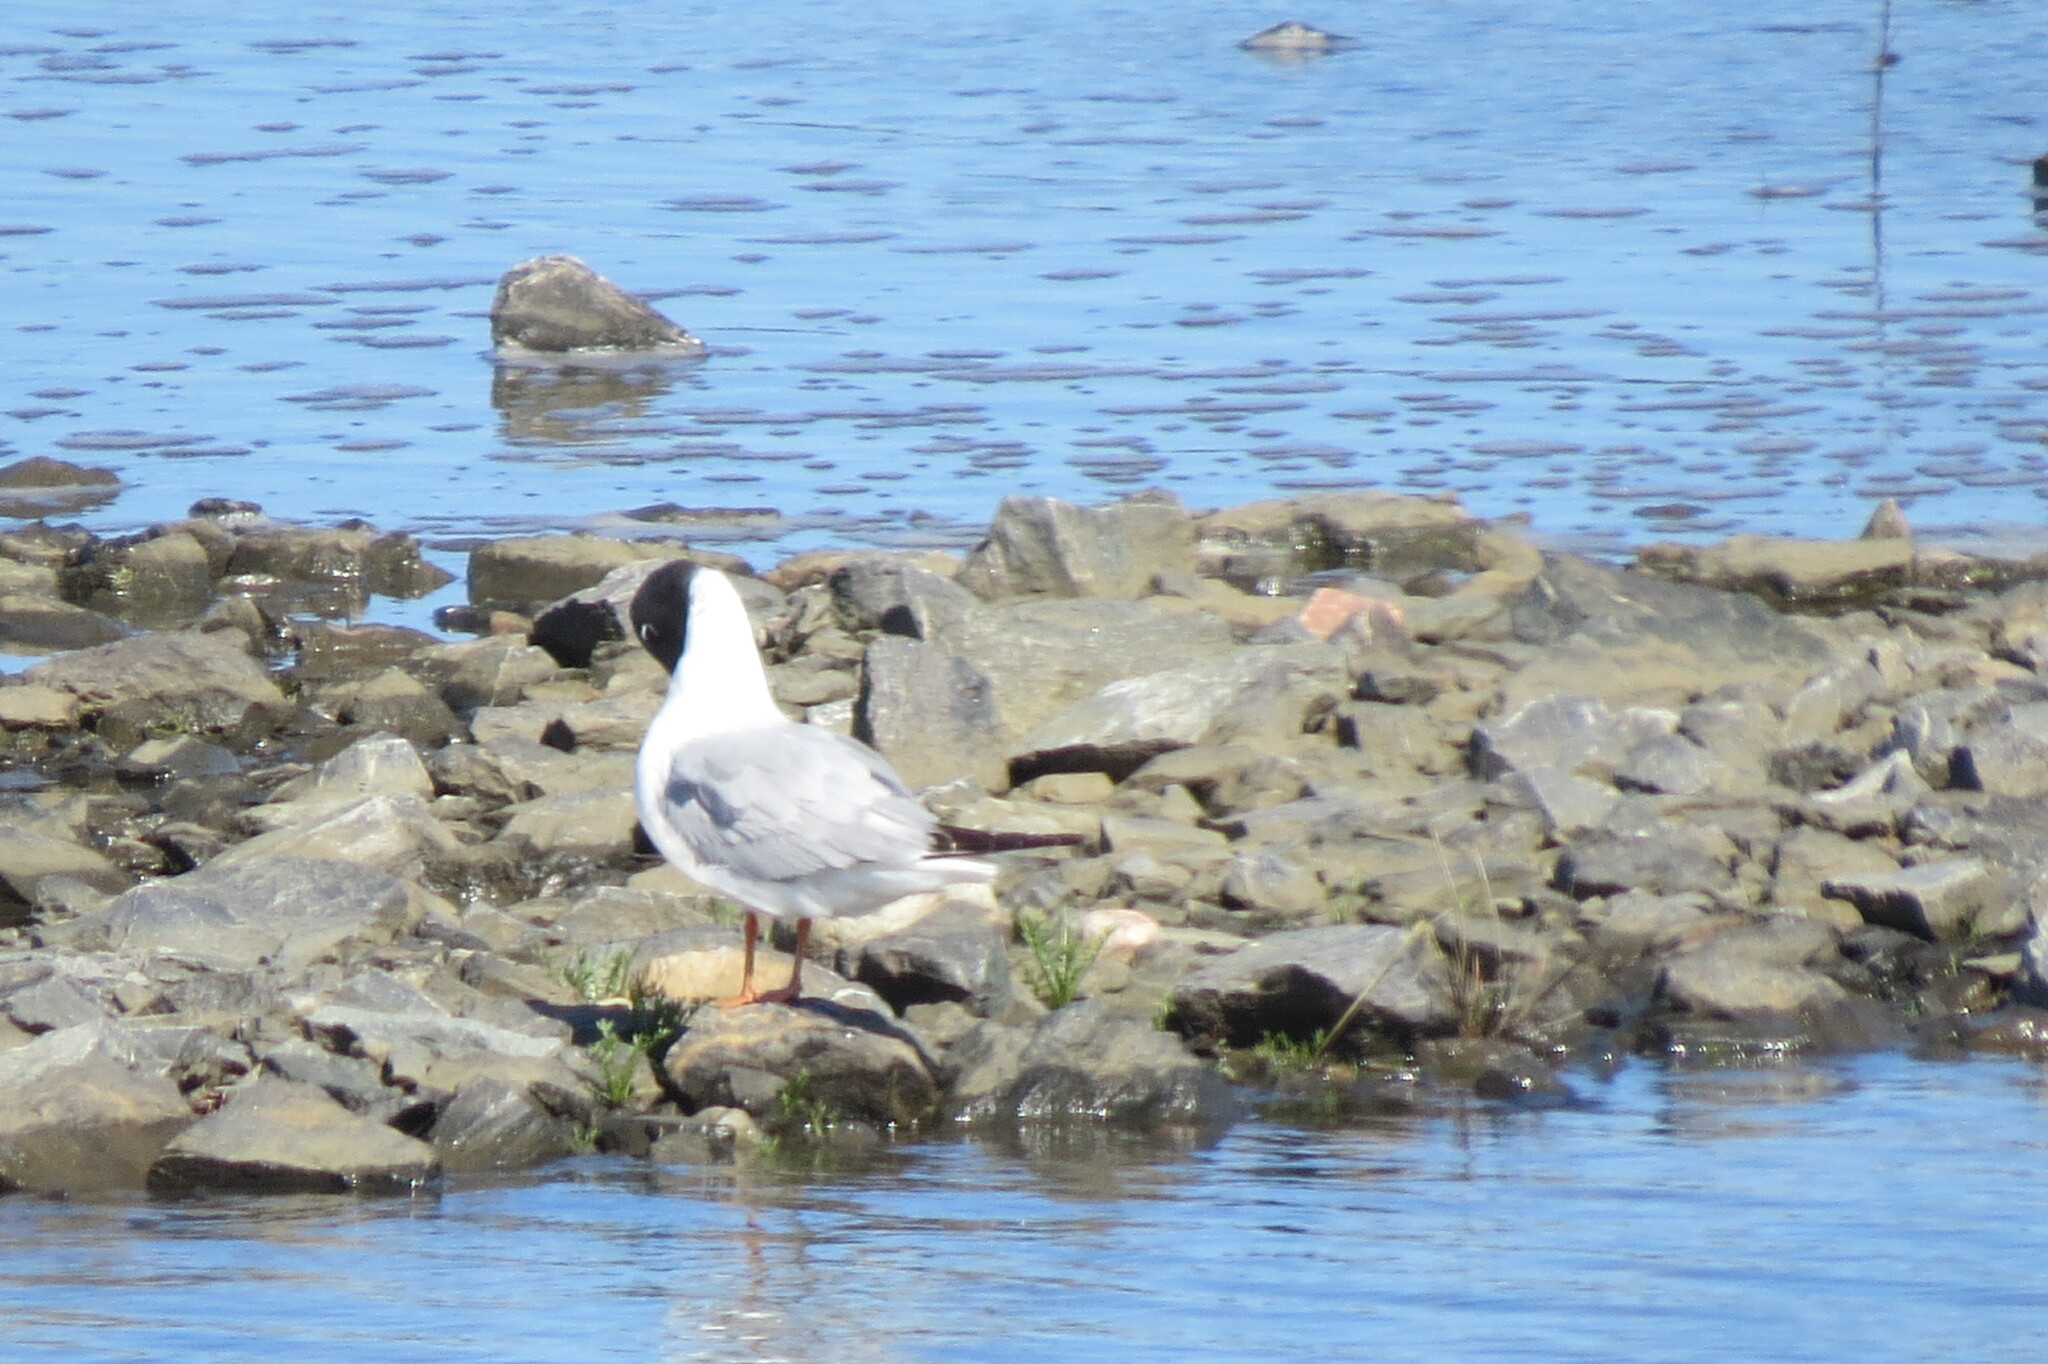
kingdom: Animalia
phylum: Chordata
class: Aves
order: Charadriiformes
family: Laridae
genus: Chroicocephalus
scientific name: Chroicocephalus philadelphia
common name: Bonaparte's gull
